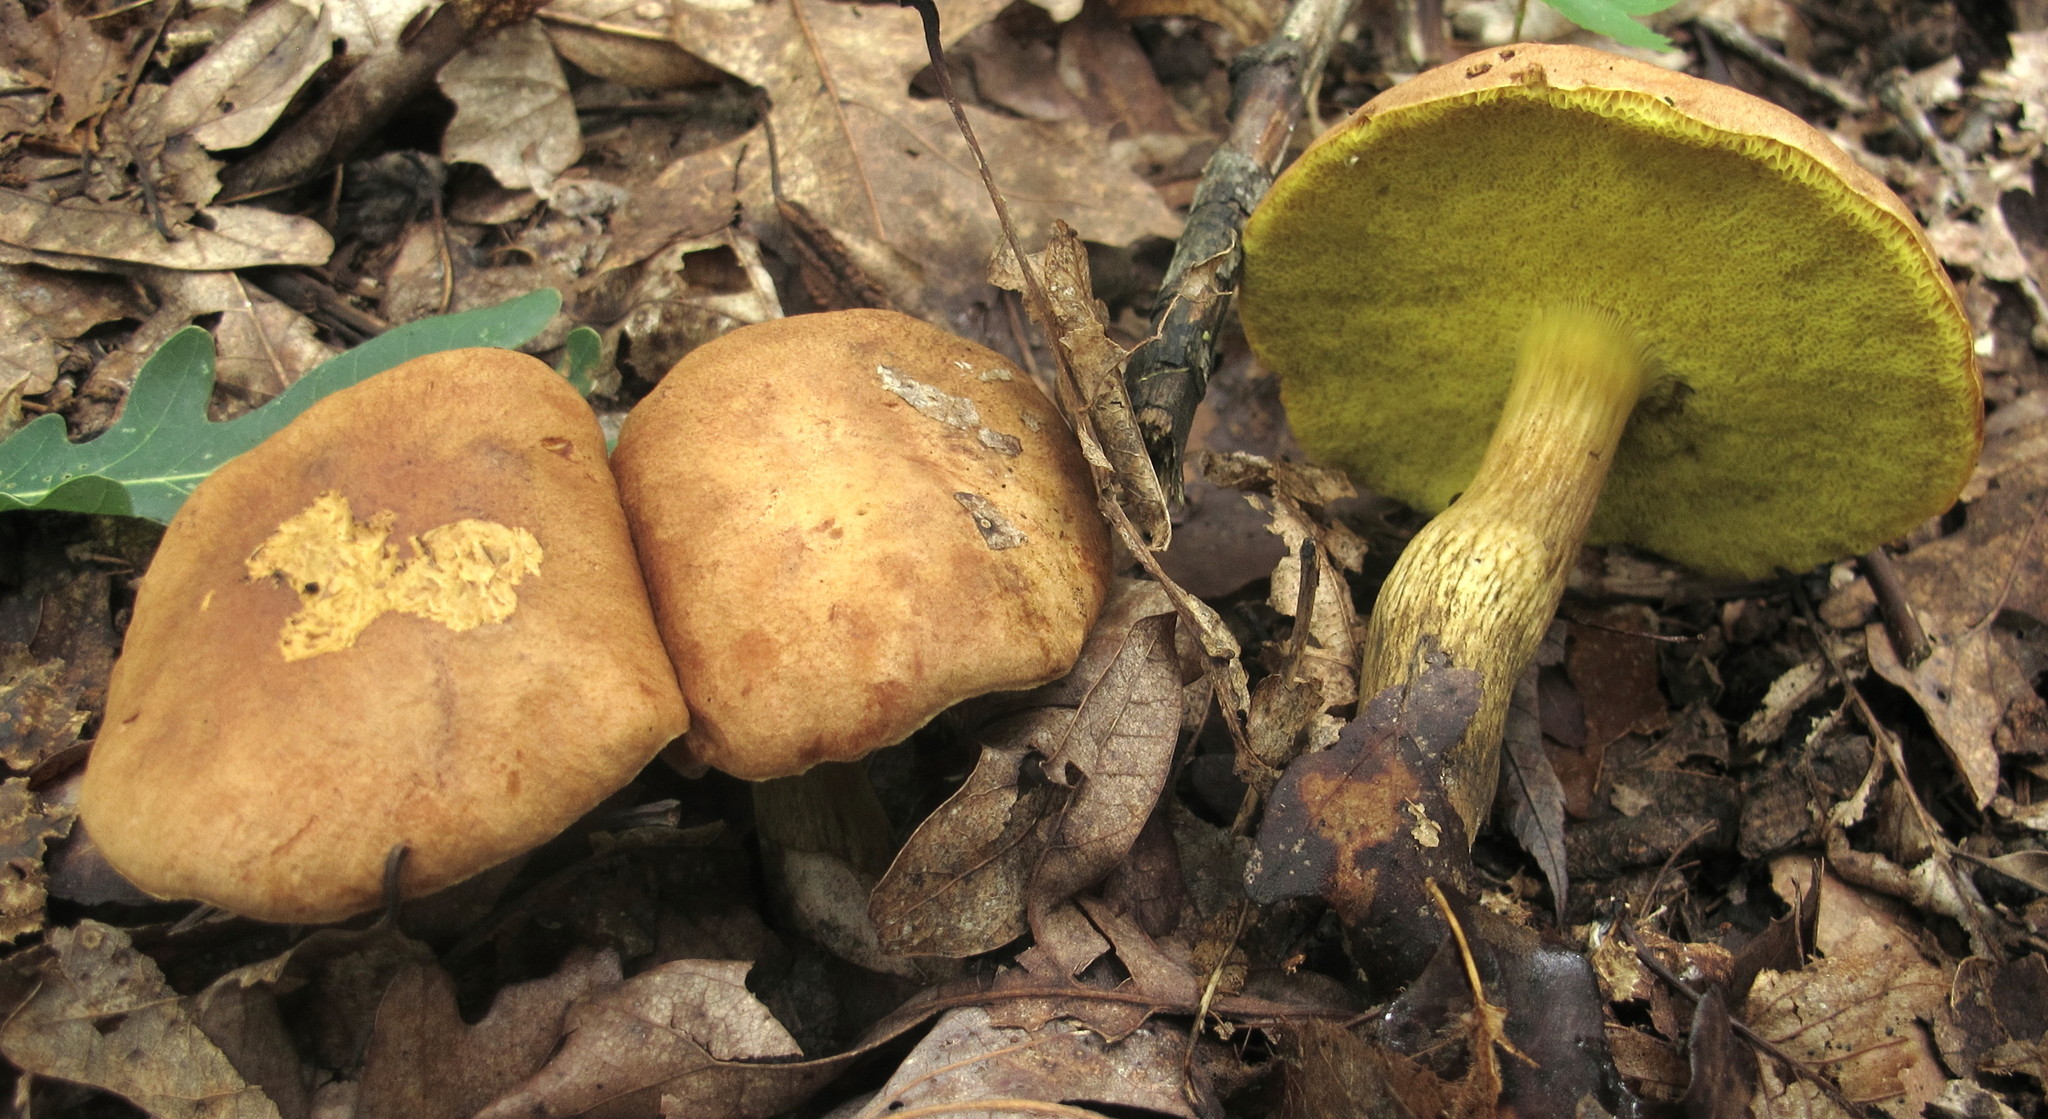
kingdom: Fungi
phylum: Basidiomycota
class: Agaricomycetes
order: Boletales
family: Boletaceae
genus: Aureoboletus
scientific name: Aureoboletus innixus
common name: Clustered brown bolete
